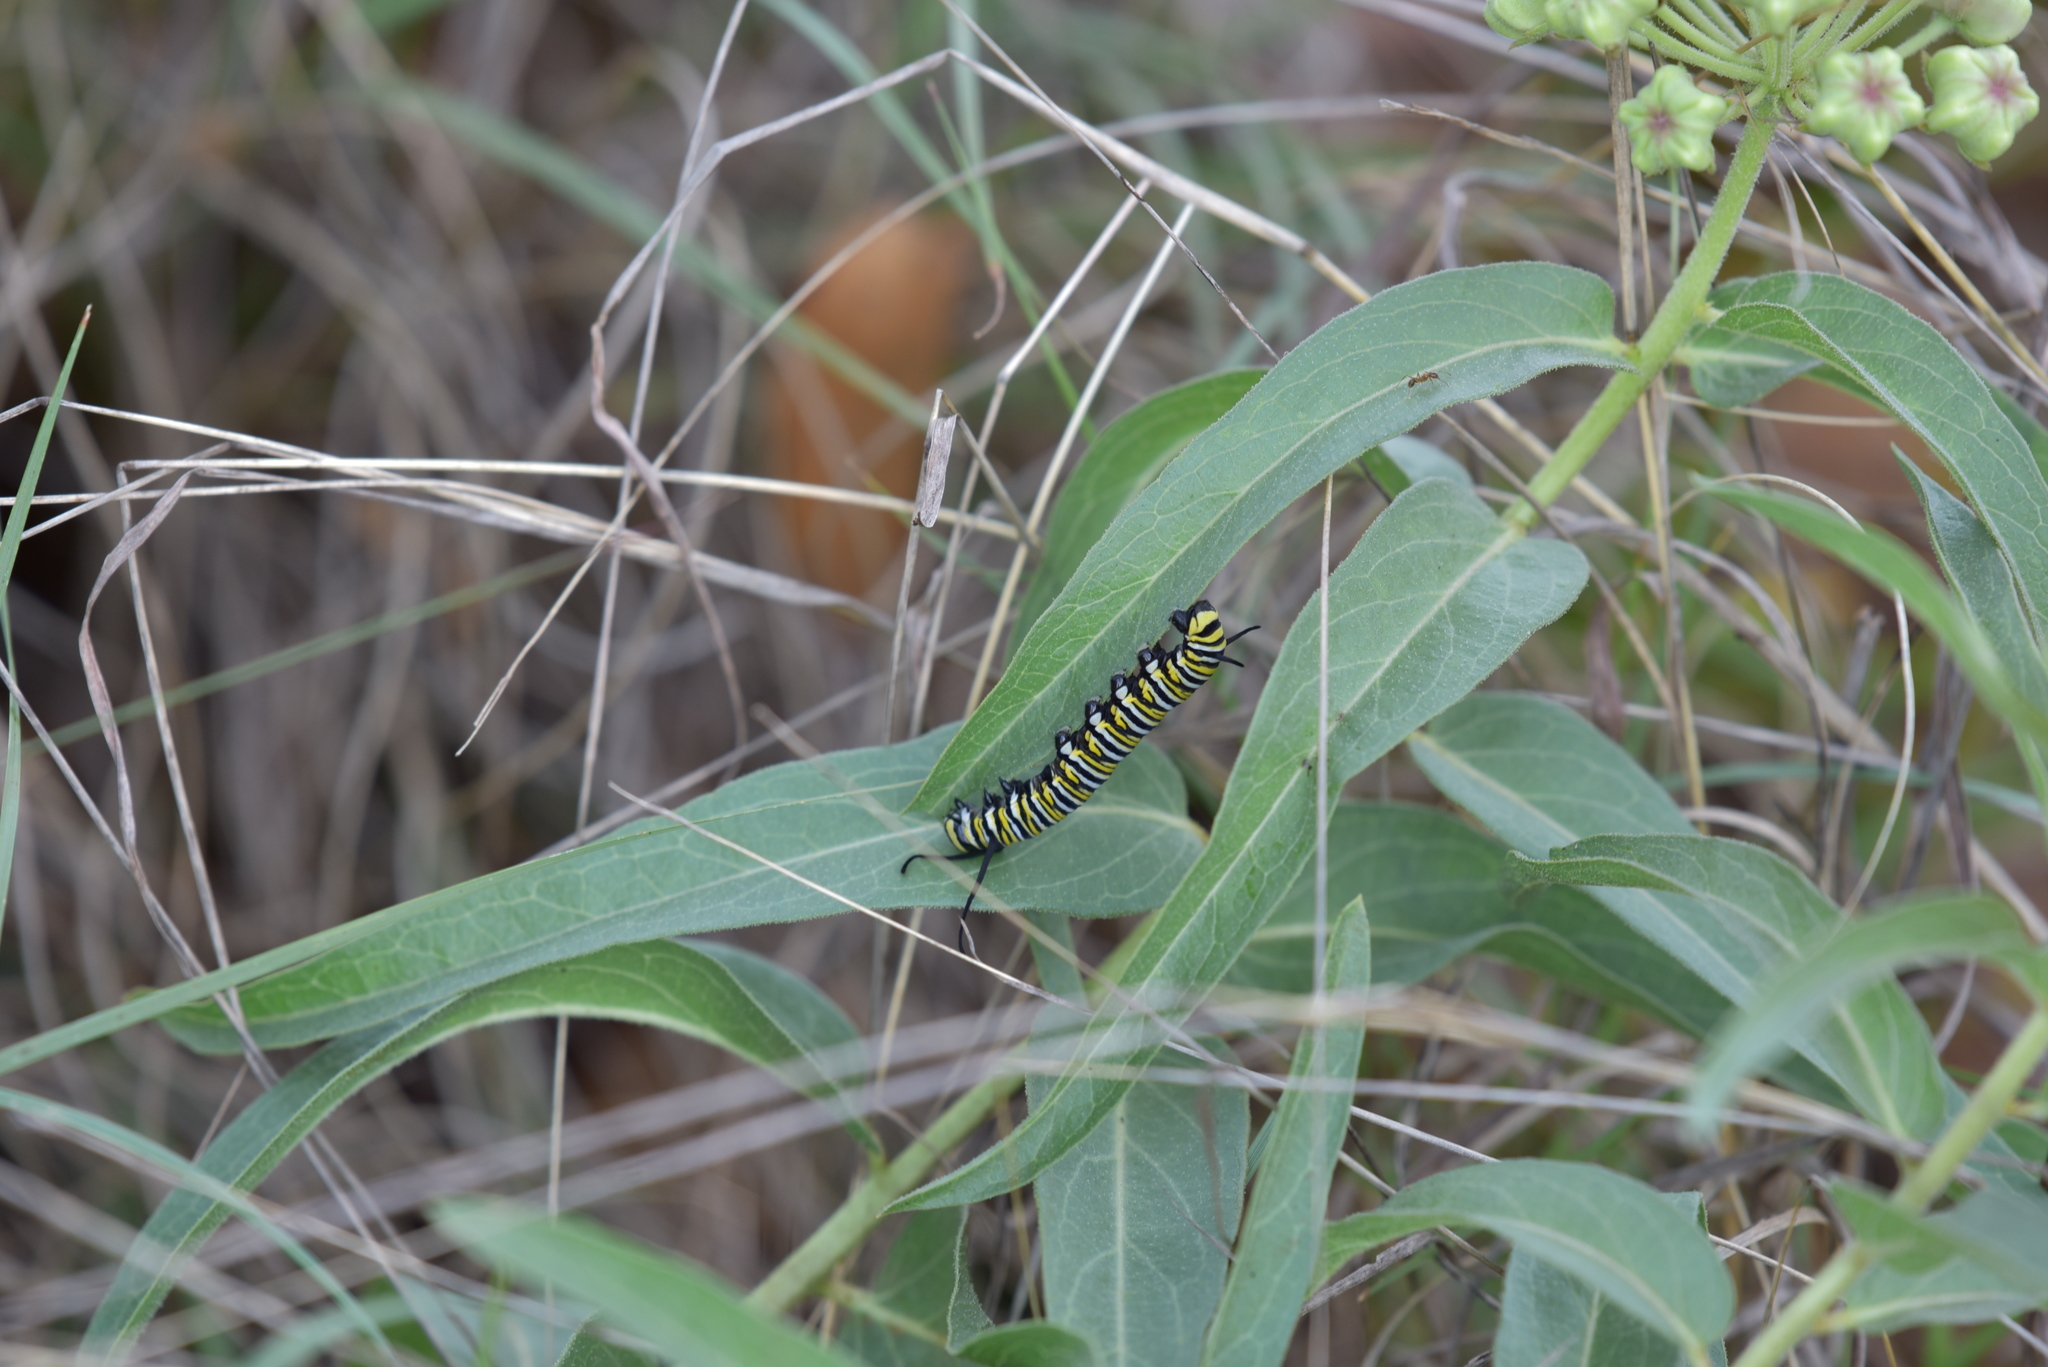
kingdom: Animalia
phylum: Arthropoda
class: Insecta
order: Lepidoptera
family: Nymphalidae
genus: Danaus
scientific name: Danaus plexippus
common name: Monarch
